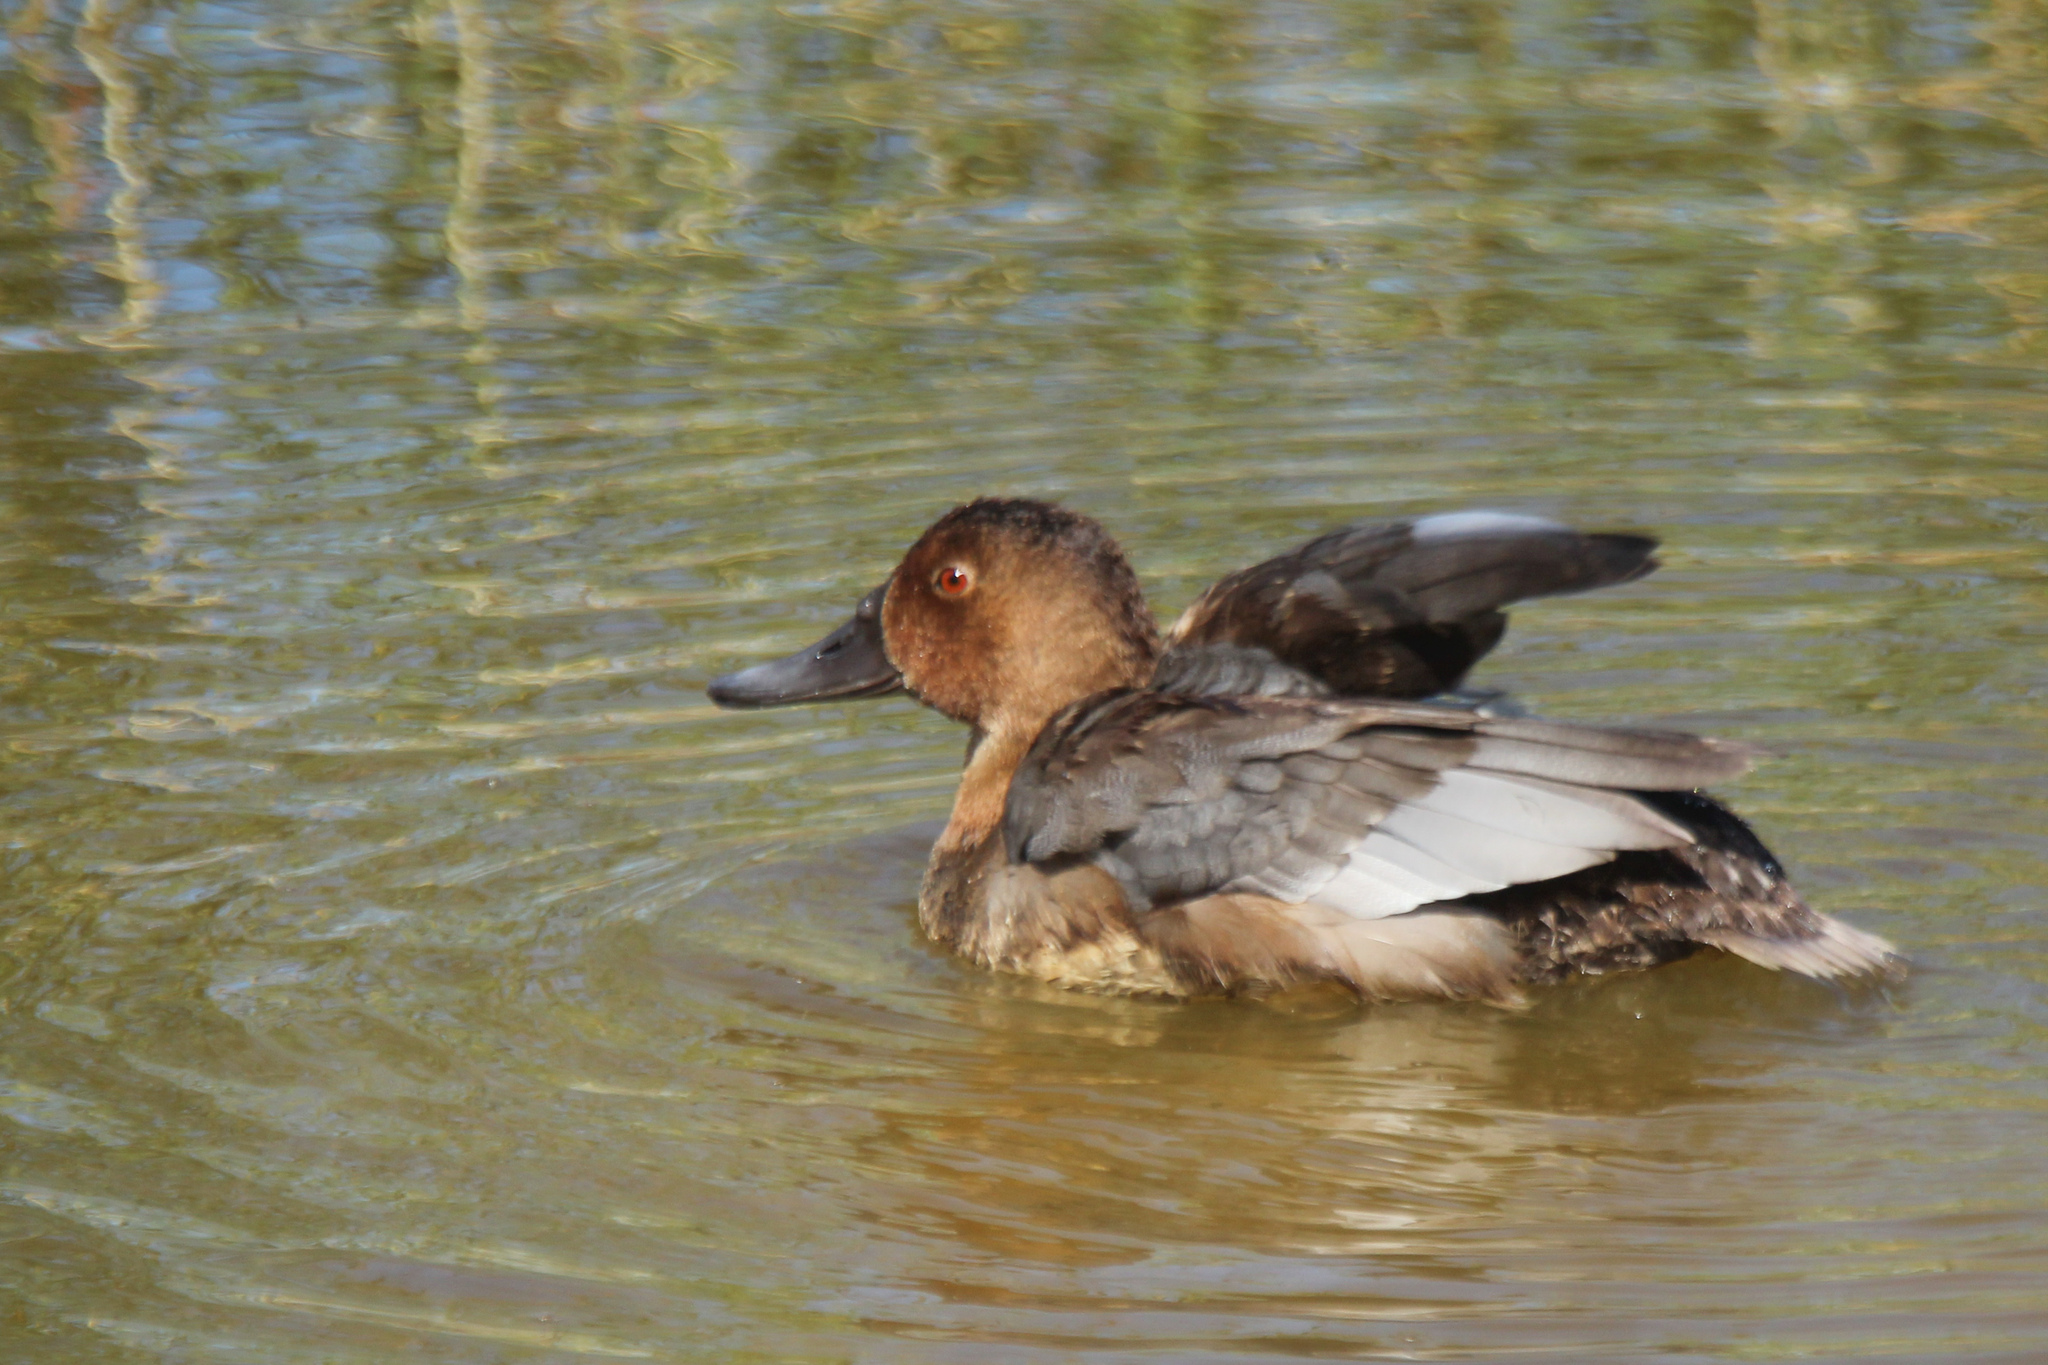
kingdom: Animalia
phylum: Chordata
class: Aves
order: Anseriformes
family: Anatidae
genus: Aythya
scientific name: Aythya ferina
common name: Common pochard
